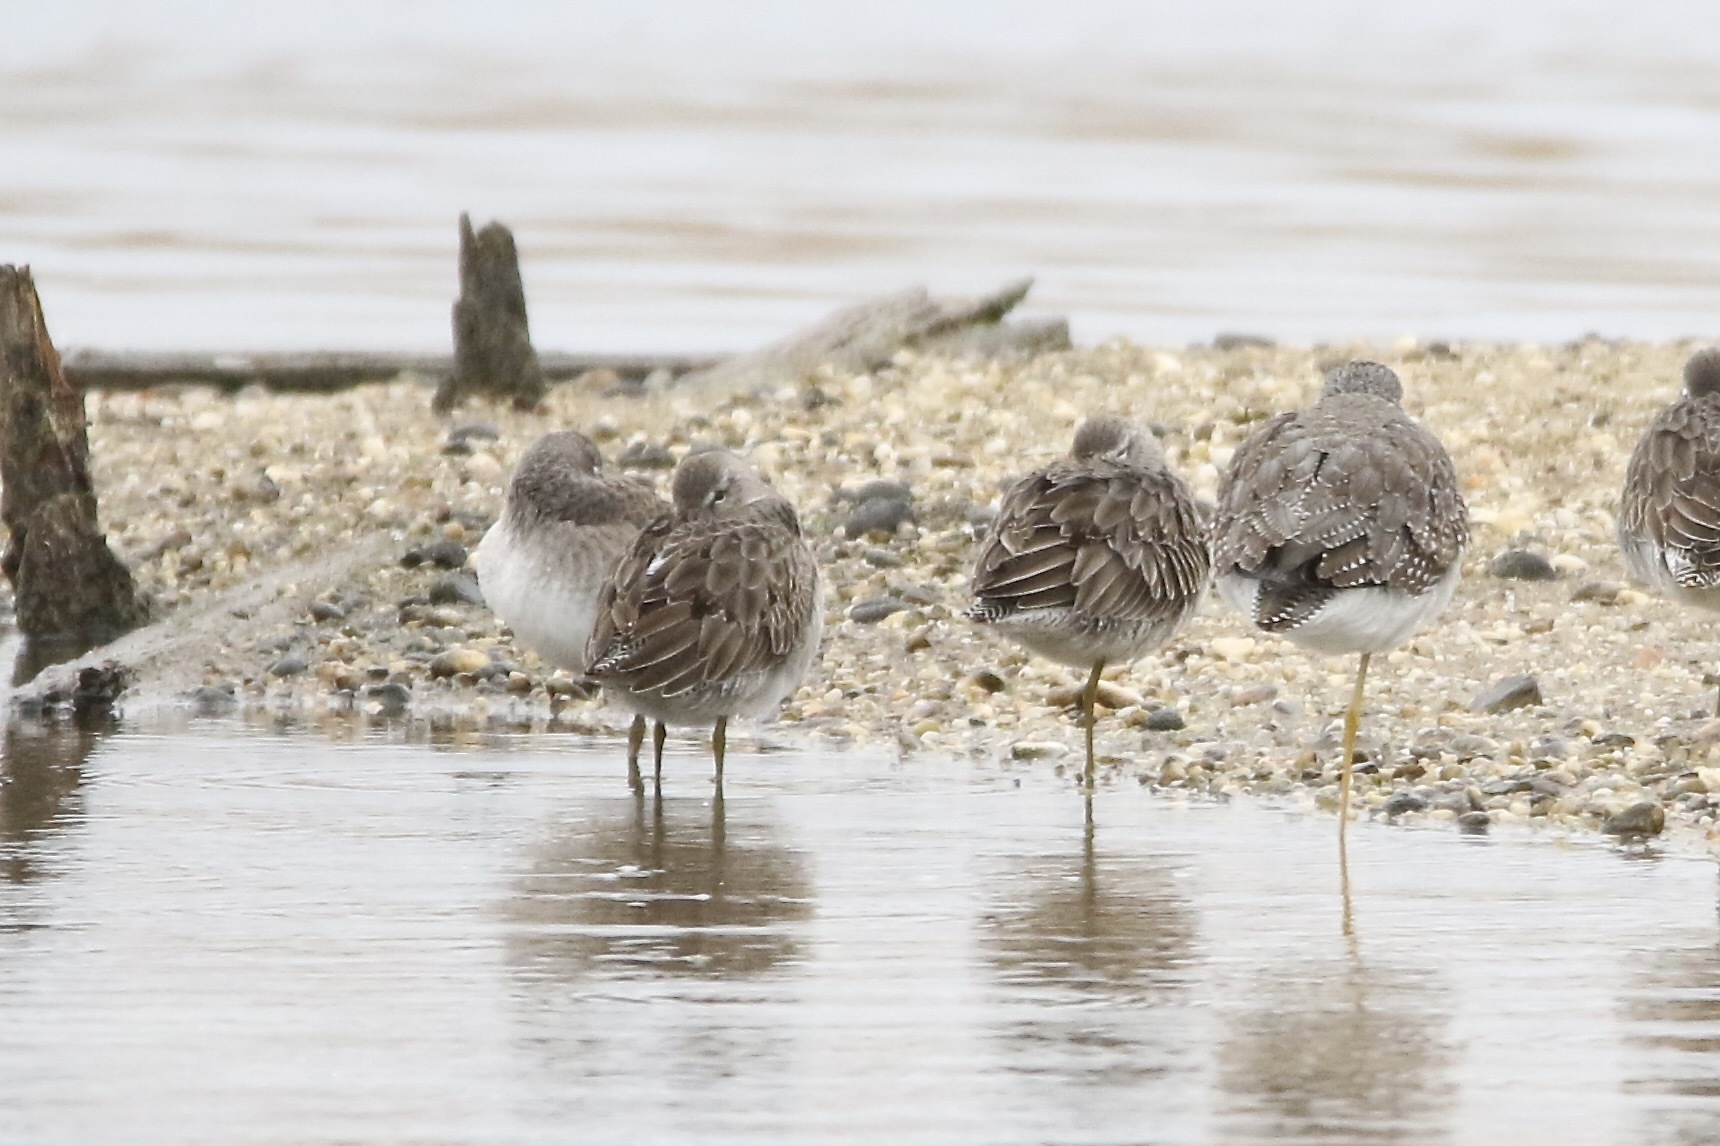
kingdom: Animalia
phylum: Chordata
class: Aves
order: Charadriiformes
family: Scolopacidae
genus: Limnodromus
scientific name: Limnodromus scolopaceus
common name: Long-billed dowitcher
